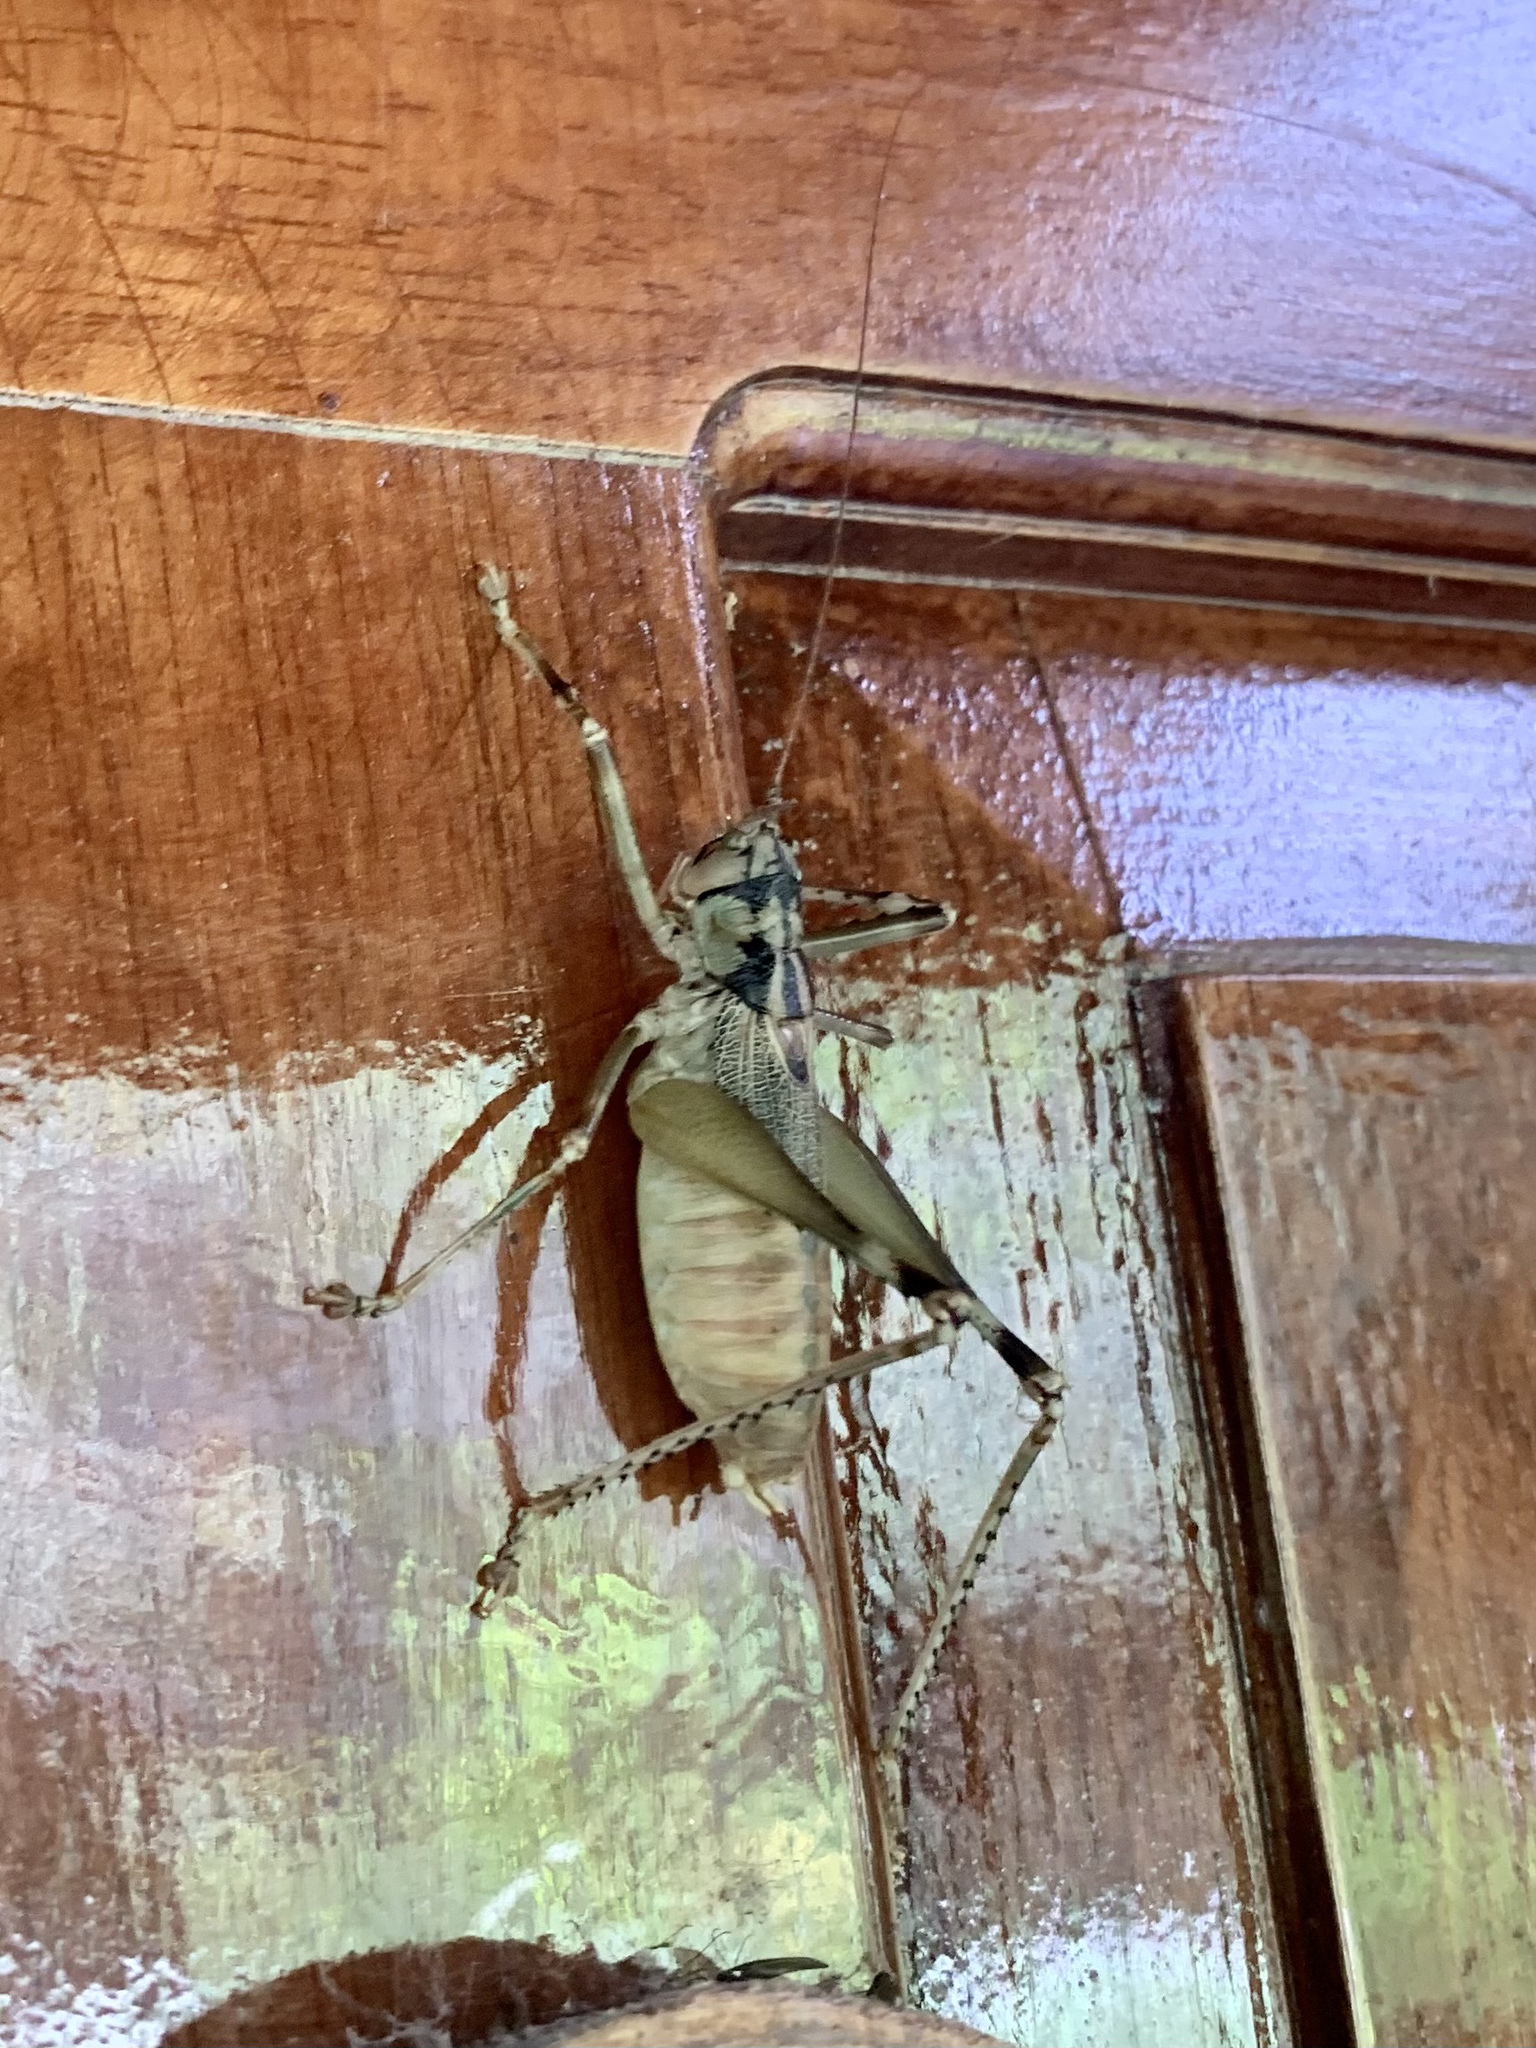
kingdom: Animalia
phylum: Arthropoda
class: Insecta
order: Orthoptera
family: Tettigoniidae
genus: Brachybliastes
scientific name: Brachybliastes paltaybamba
